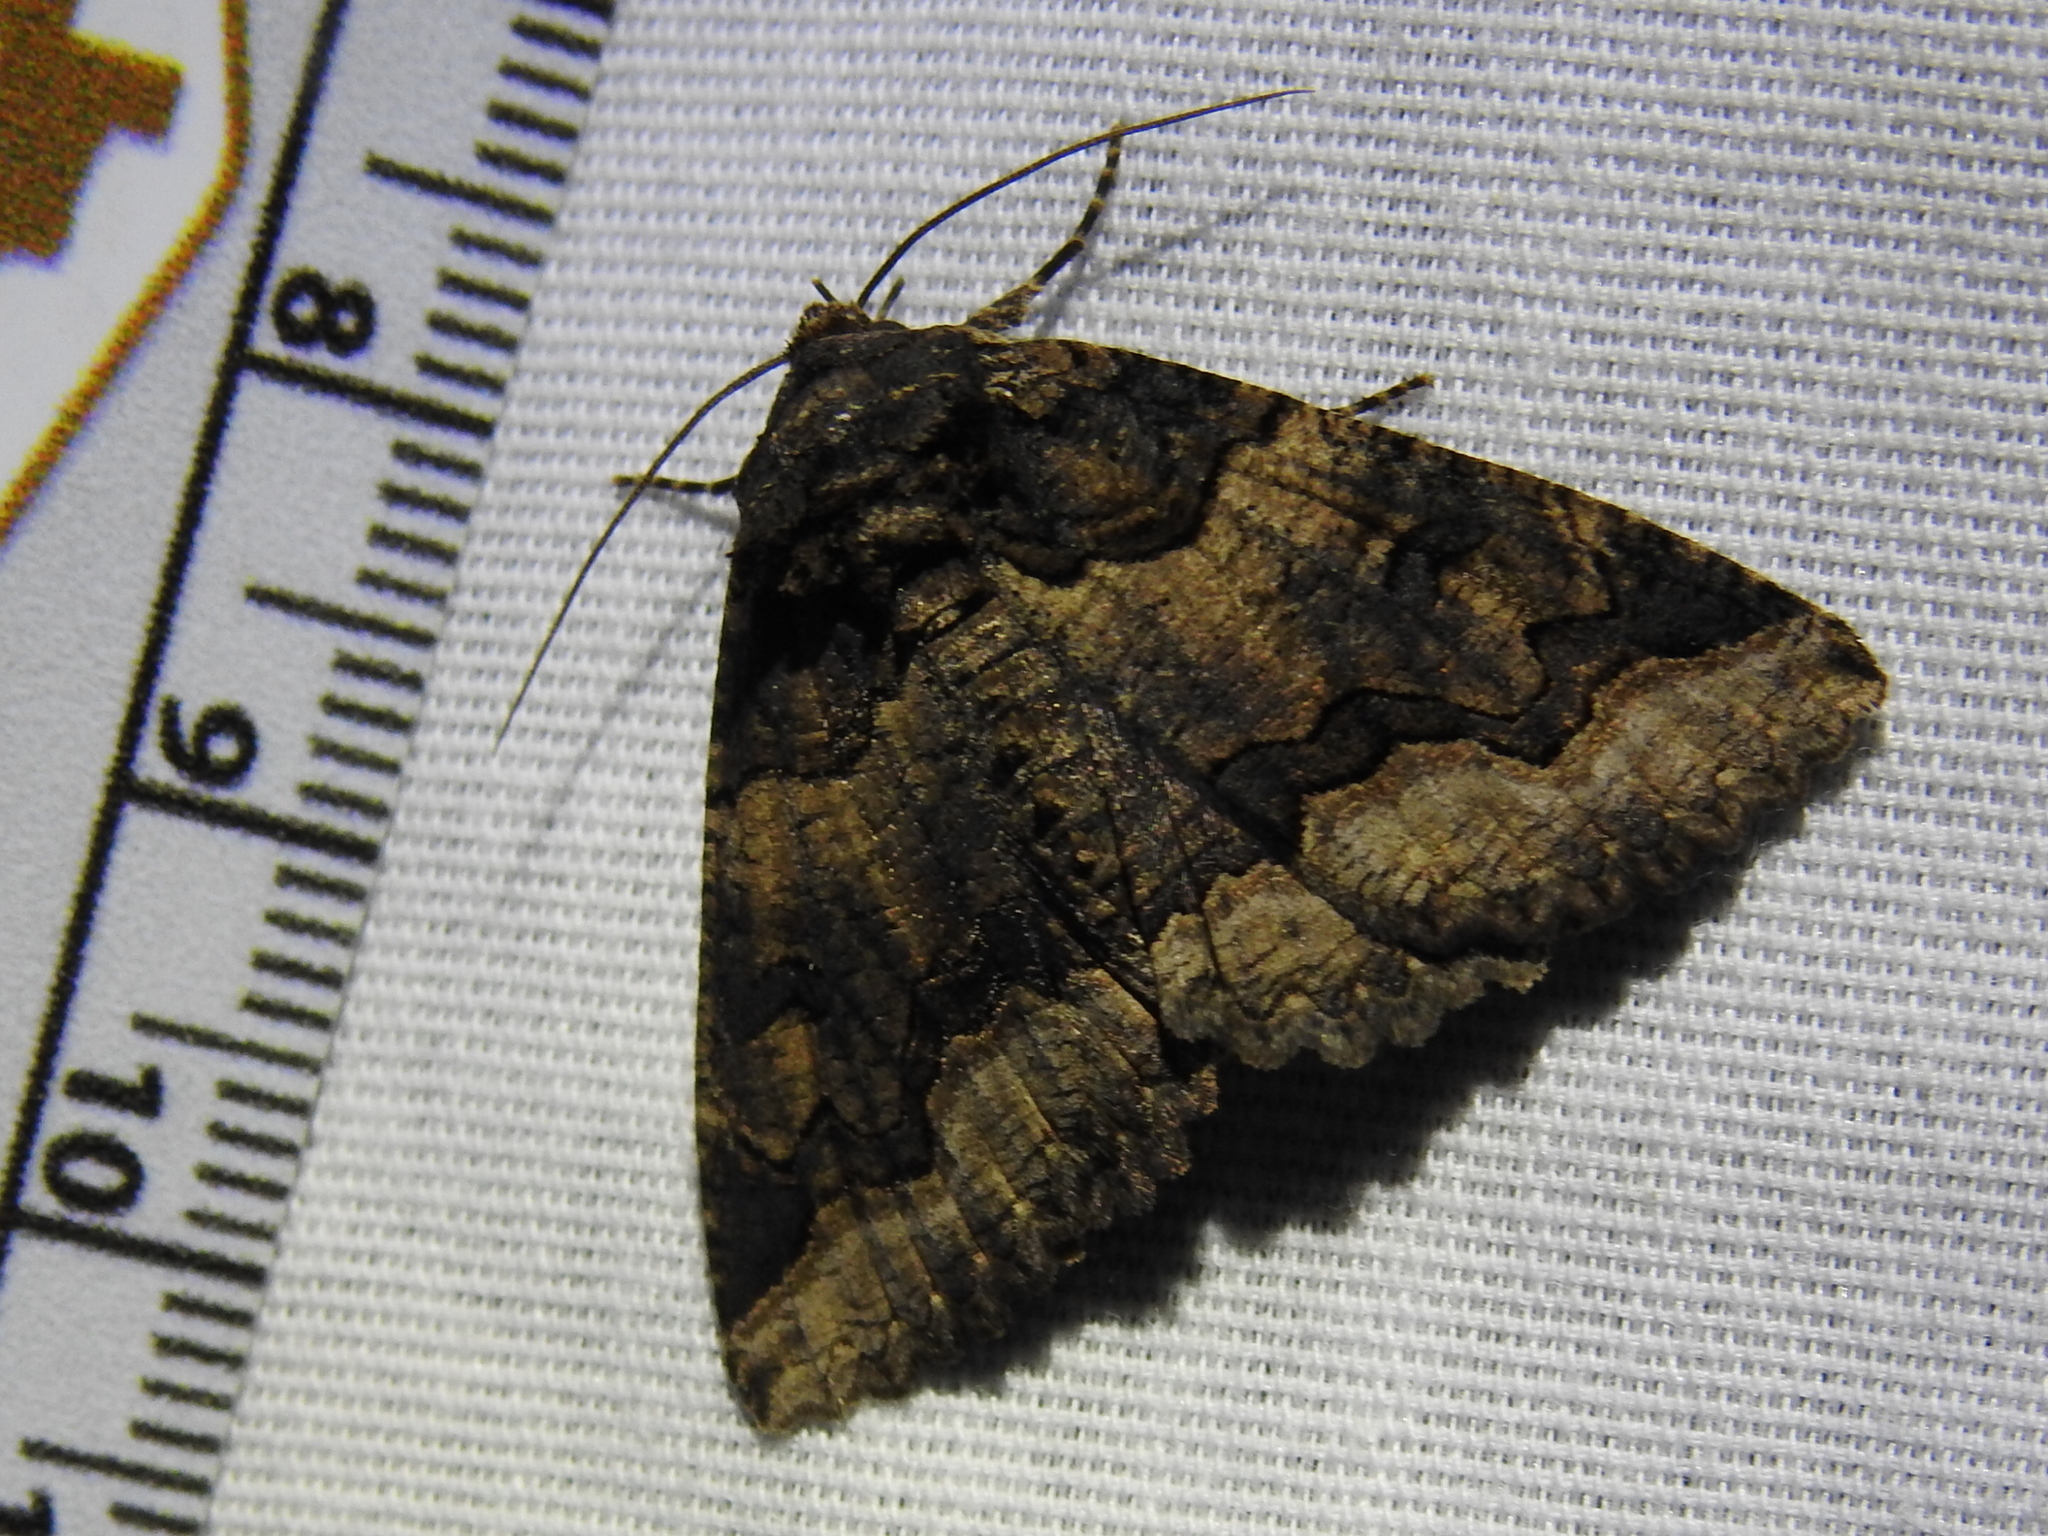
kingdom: Animalia
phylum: Arthropoda
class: Insecta
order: Lepidoptera
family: Erebidae
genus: Zale
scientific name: Zale calycanthata
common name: Double-banded zale
